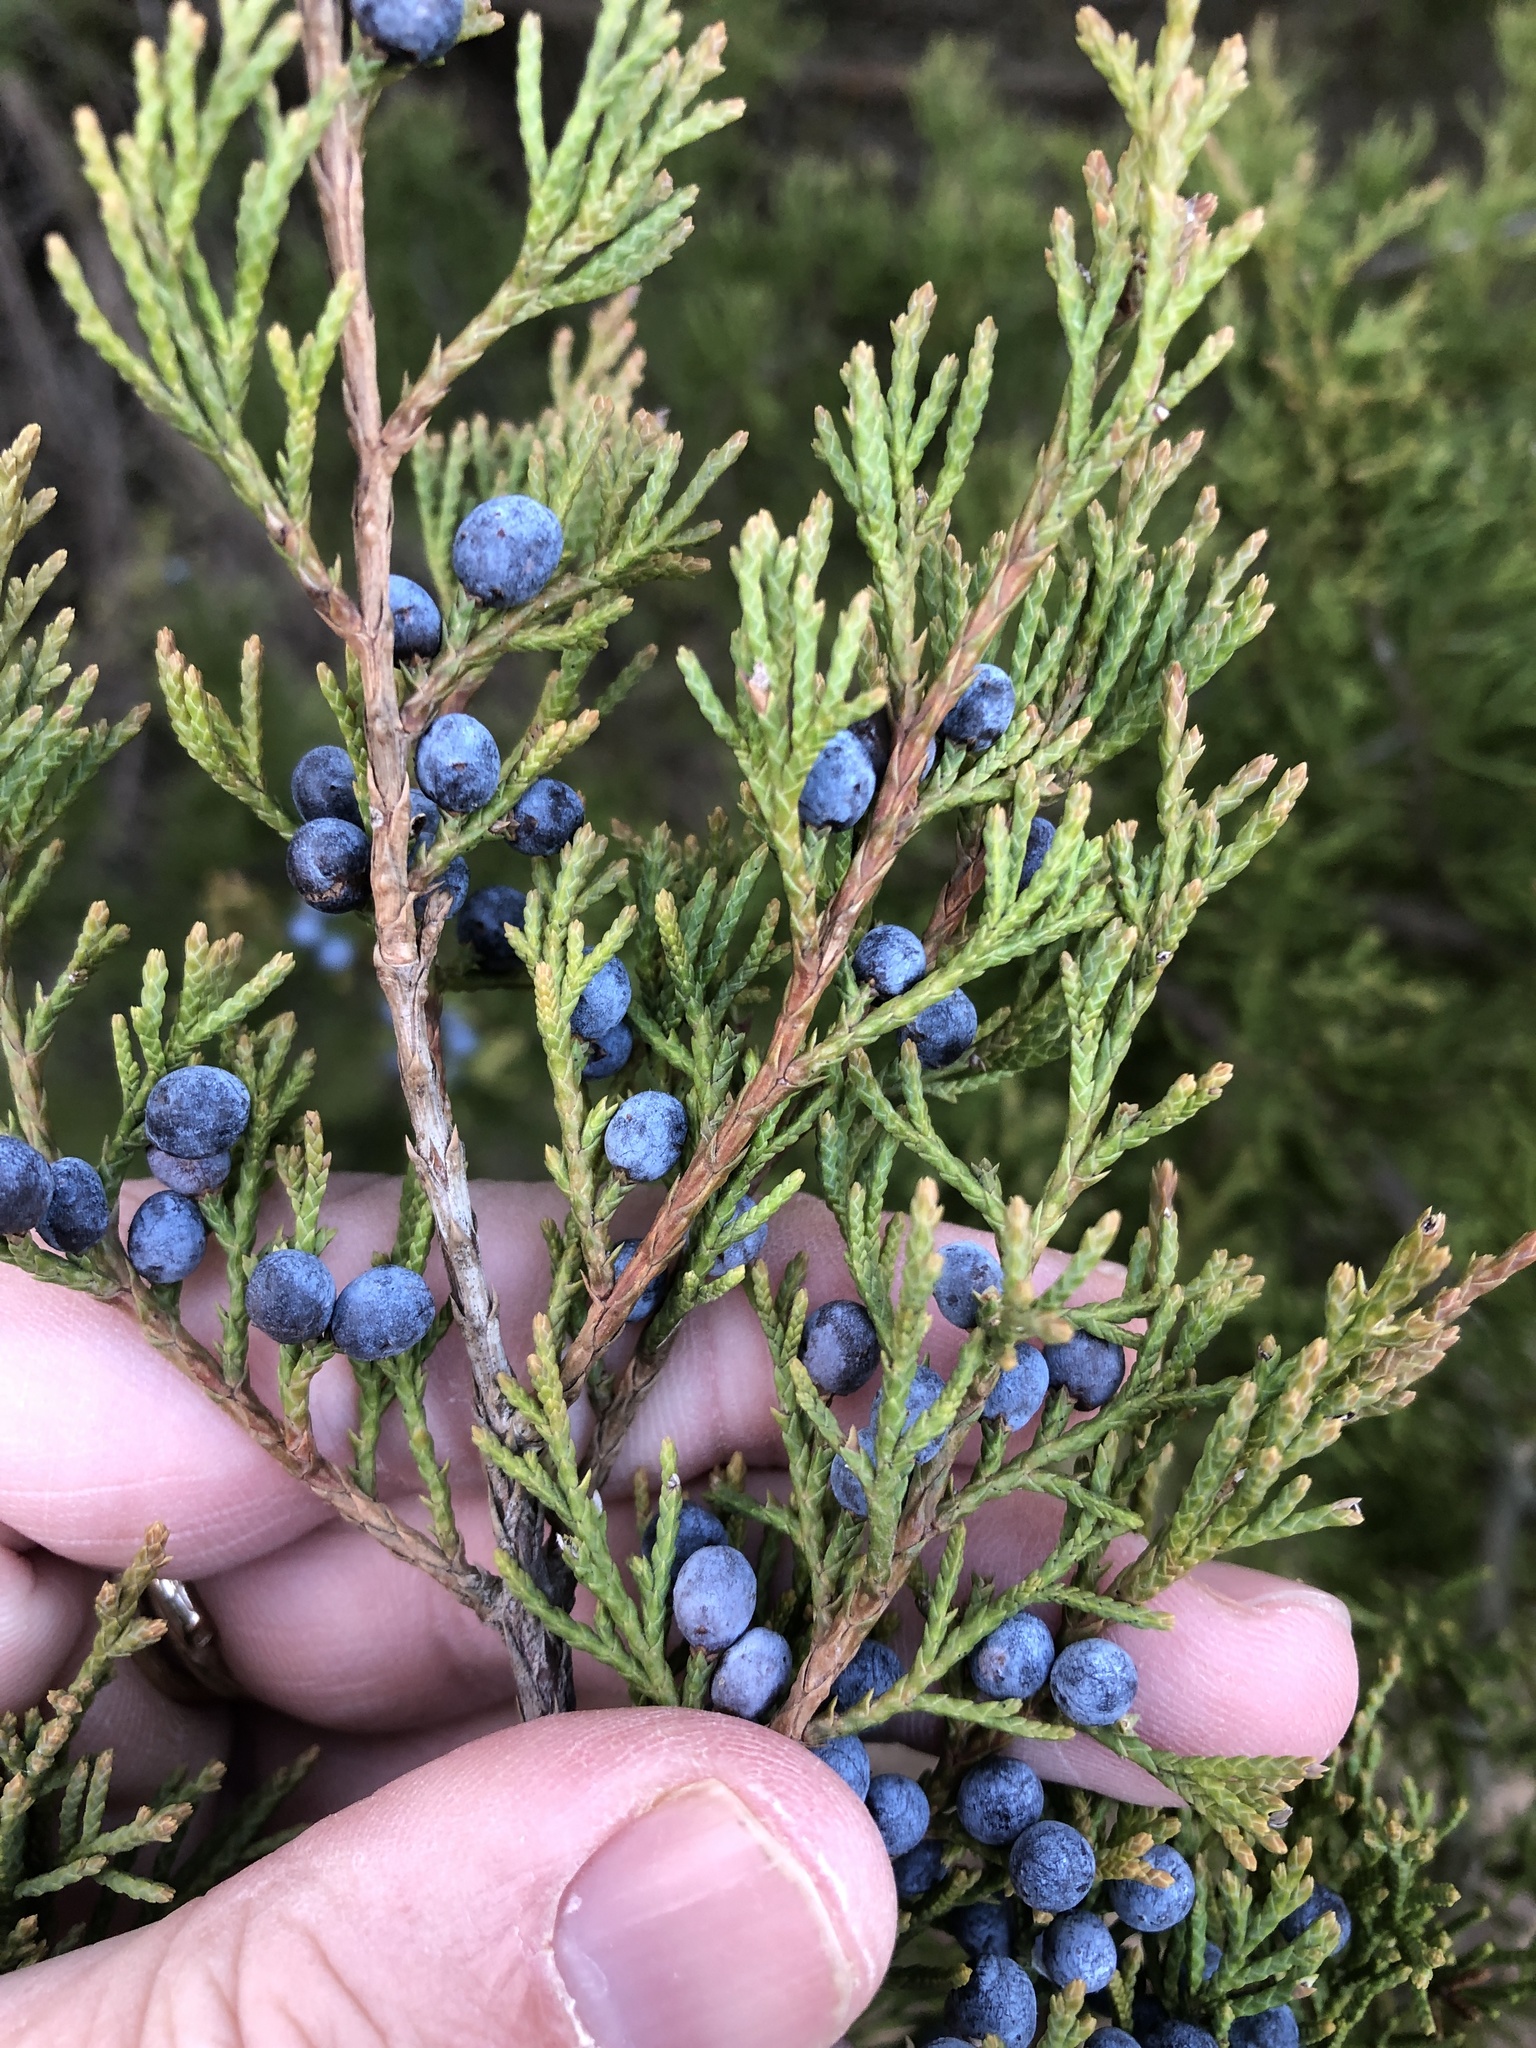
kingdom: Plantae
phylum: Tracheophyta
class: Pinopsida
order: Pinales
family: Cupressaceae
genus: Juniperus
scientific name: Juniperus virginiana
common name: Red juniper
